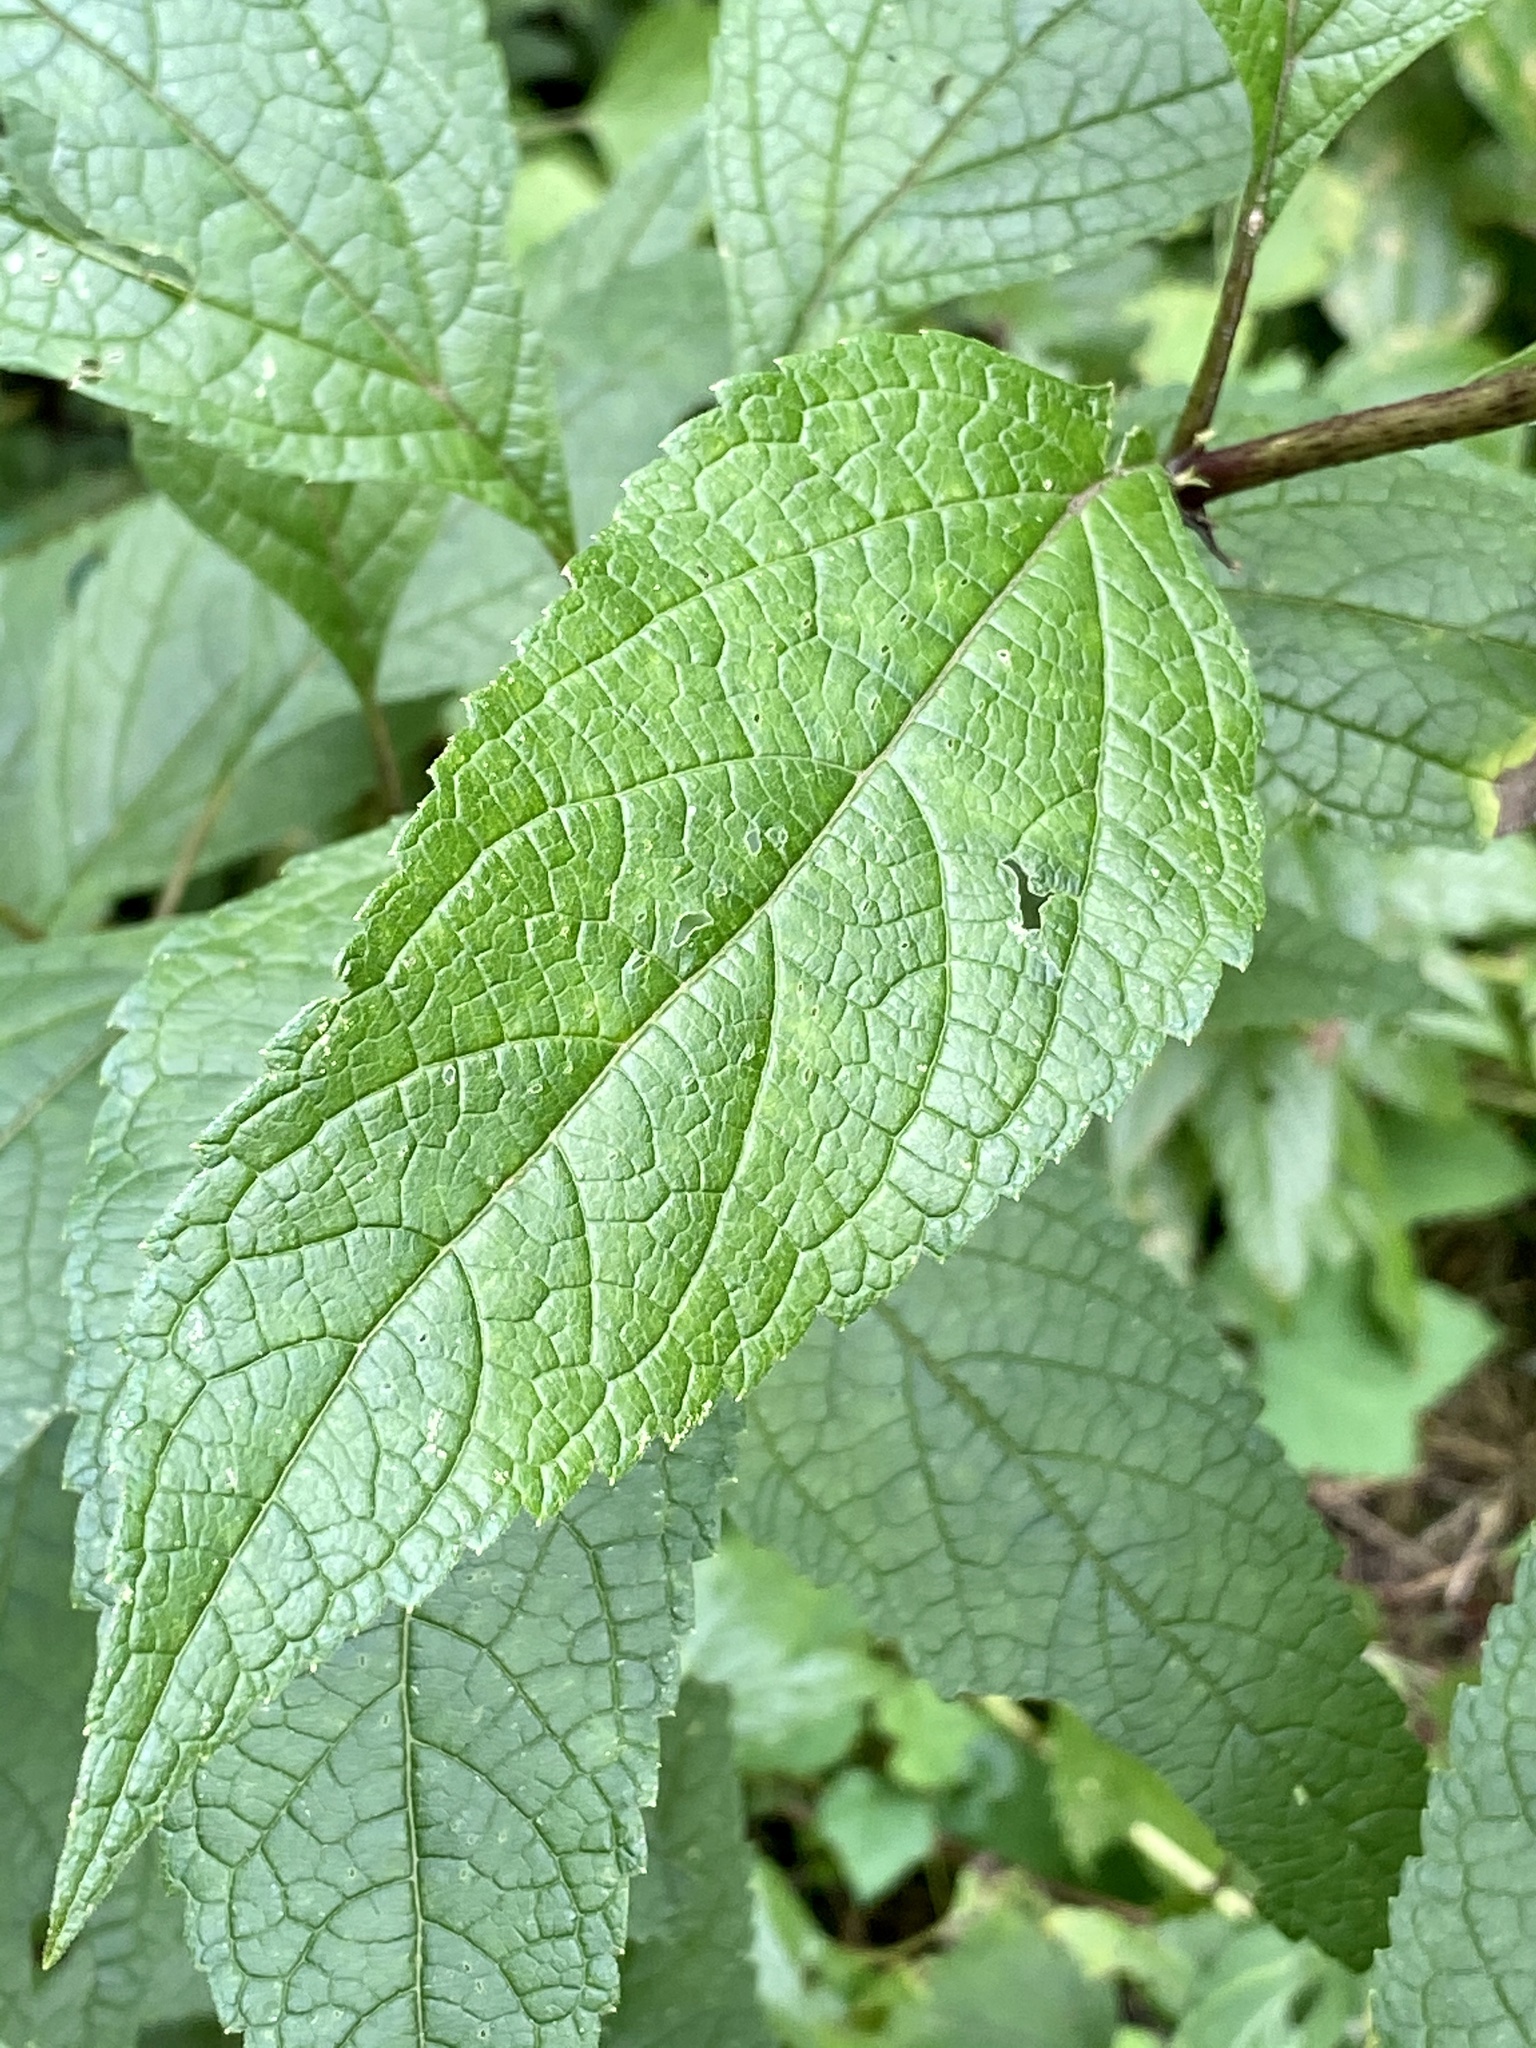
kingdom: Plantae
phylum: Tracheophyta
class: Magnoliopsida
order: Asterales
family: Asteraceae
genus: Eutrochium
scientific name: Eutrochium maculatum
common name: Spotted joe pye weed
